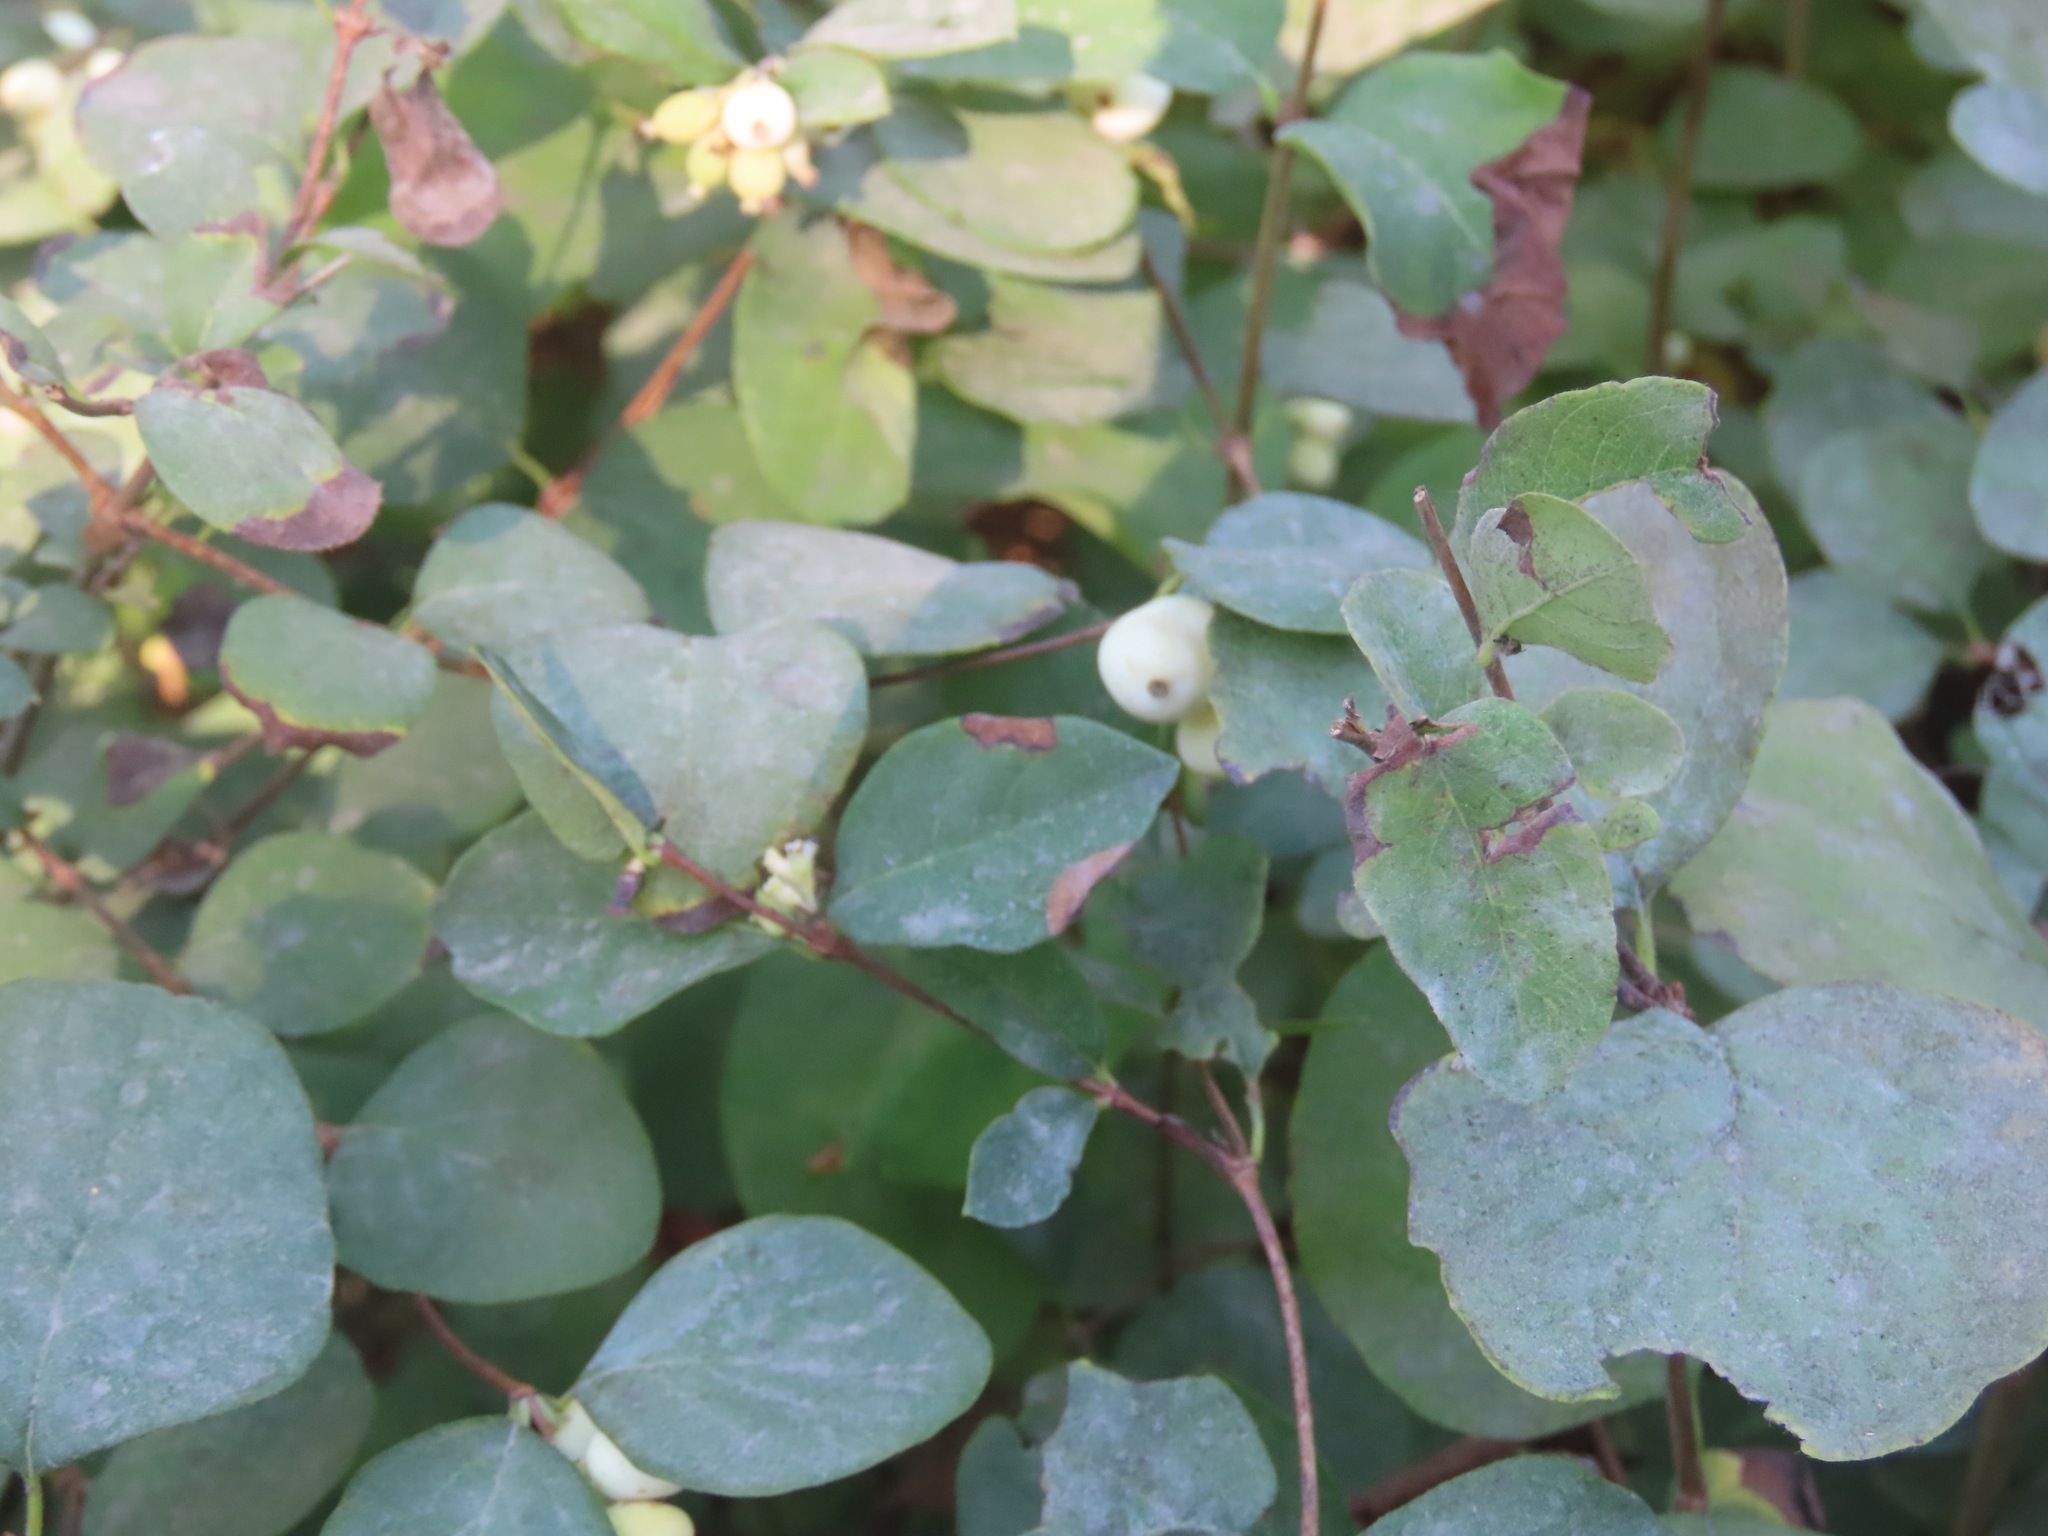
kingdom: Plantae
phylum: Tracheophyta
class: Magnoliopsida
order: Dipsacales
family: Caprifoliaceae
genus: Symphoricarpos
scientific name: Symphoricarpos albus
